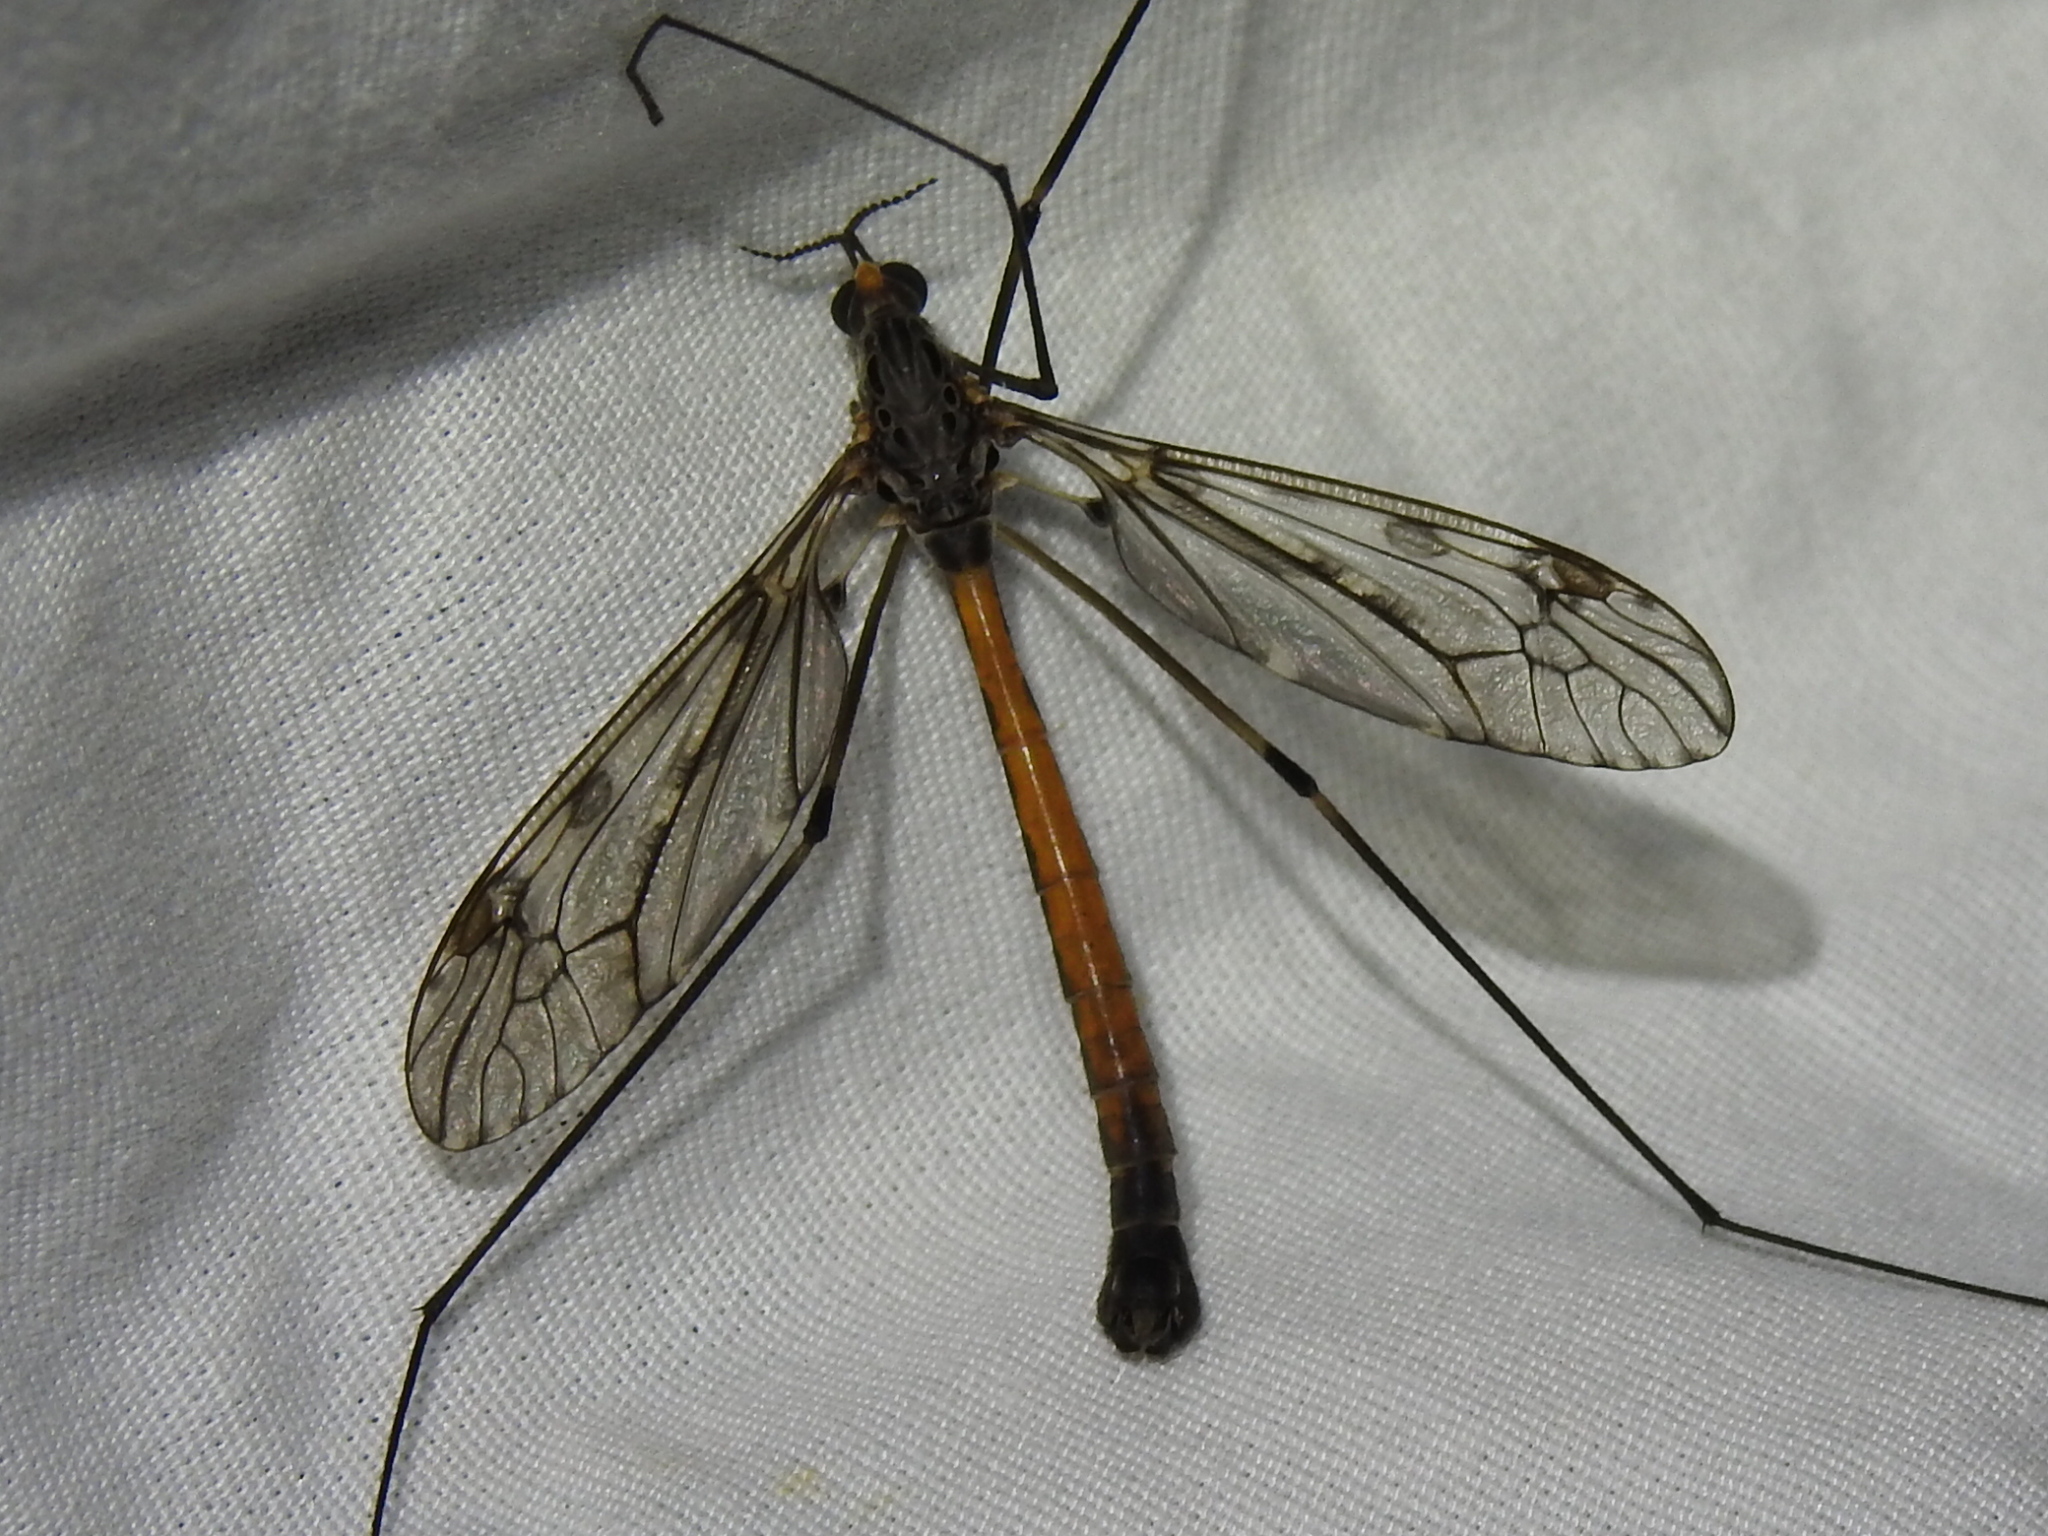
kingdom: Animalia
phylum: Arthropoda
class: Insecta
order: Diptera
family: Tipulidae
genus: Tipula
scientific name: Tipula abdominalis
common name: Giant crane fly
